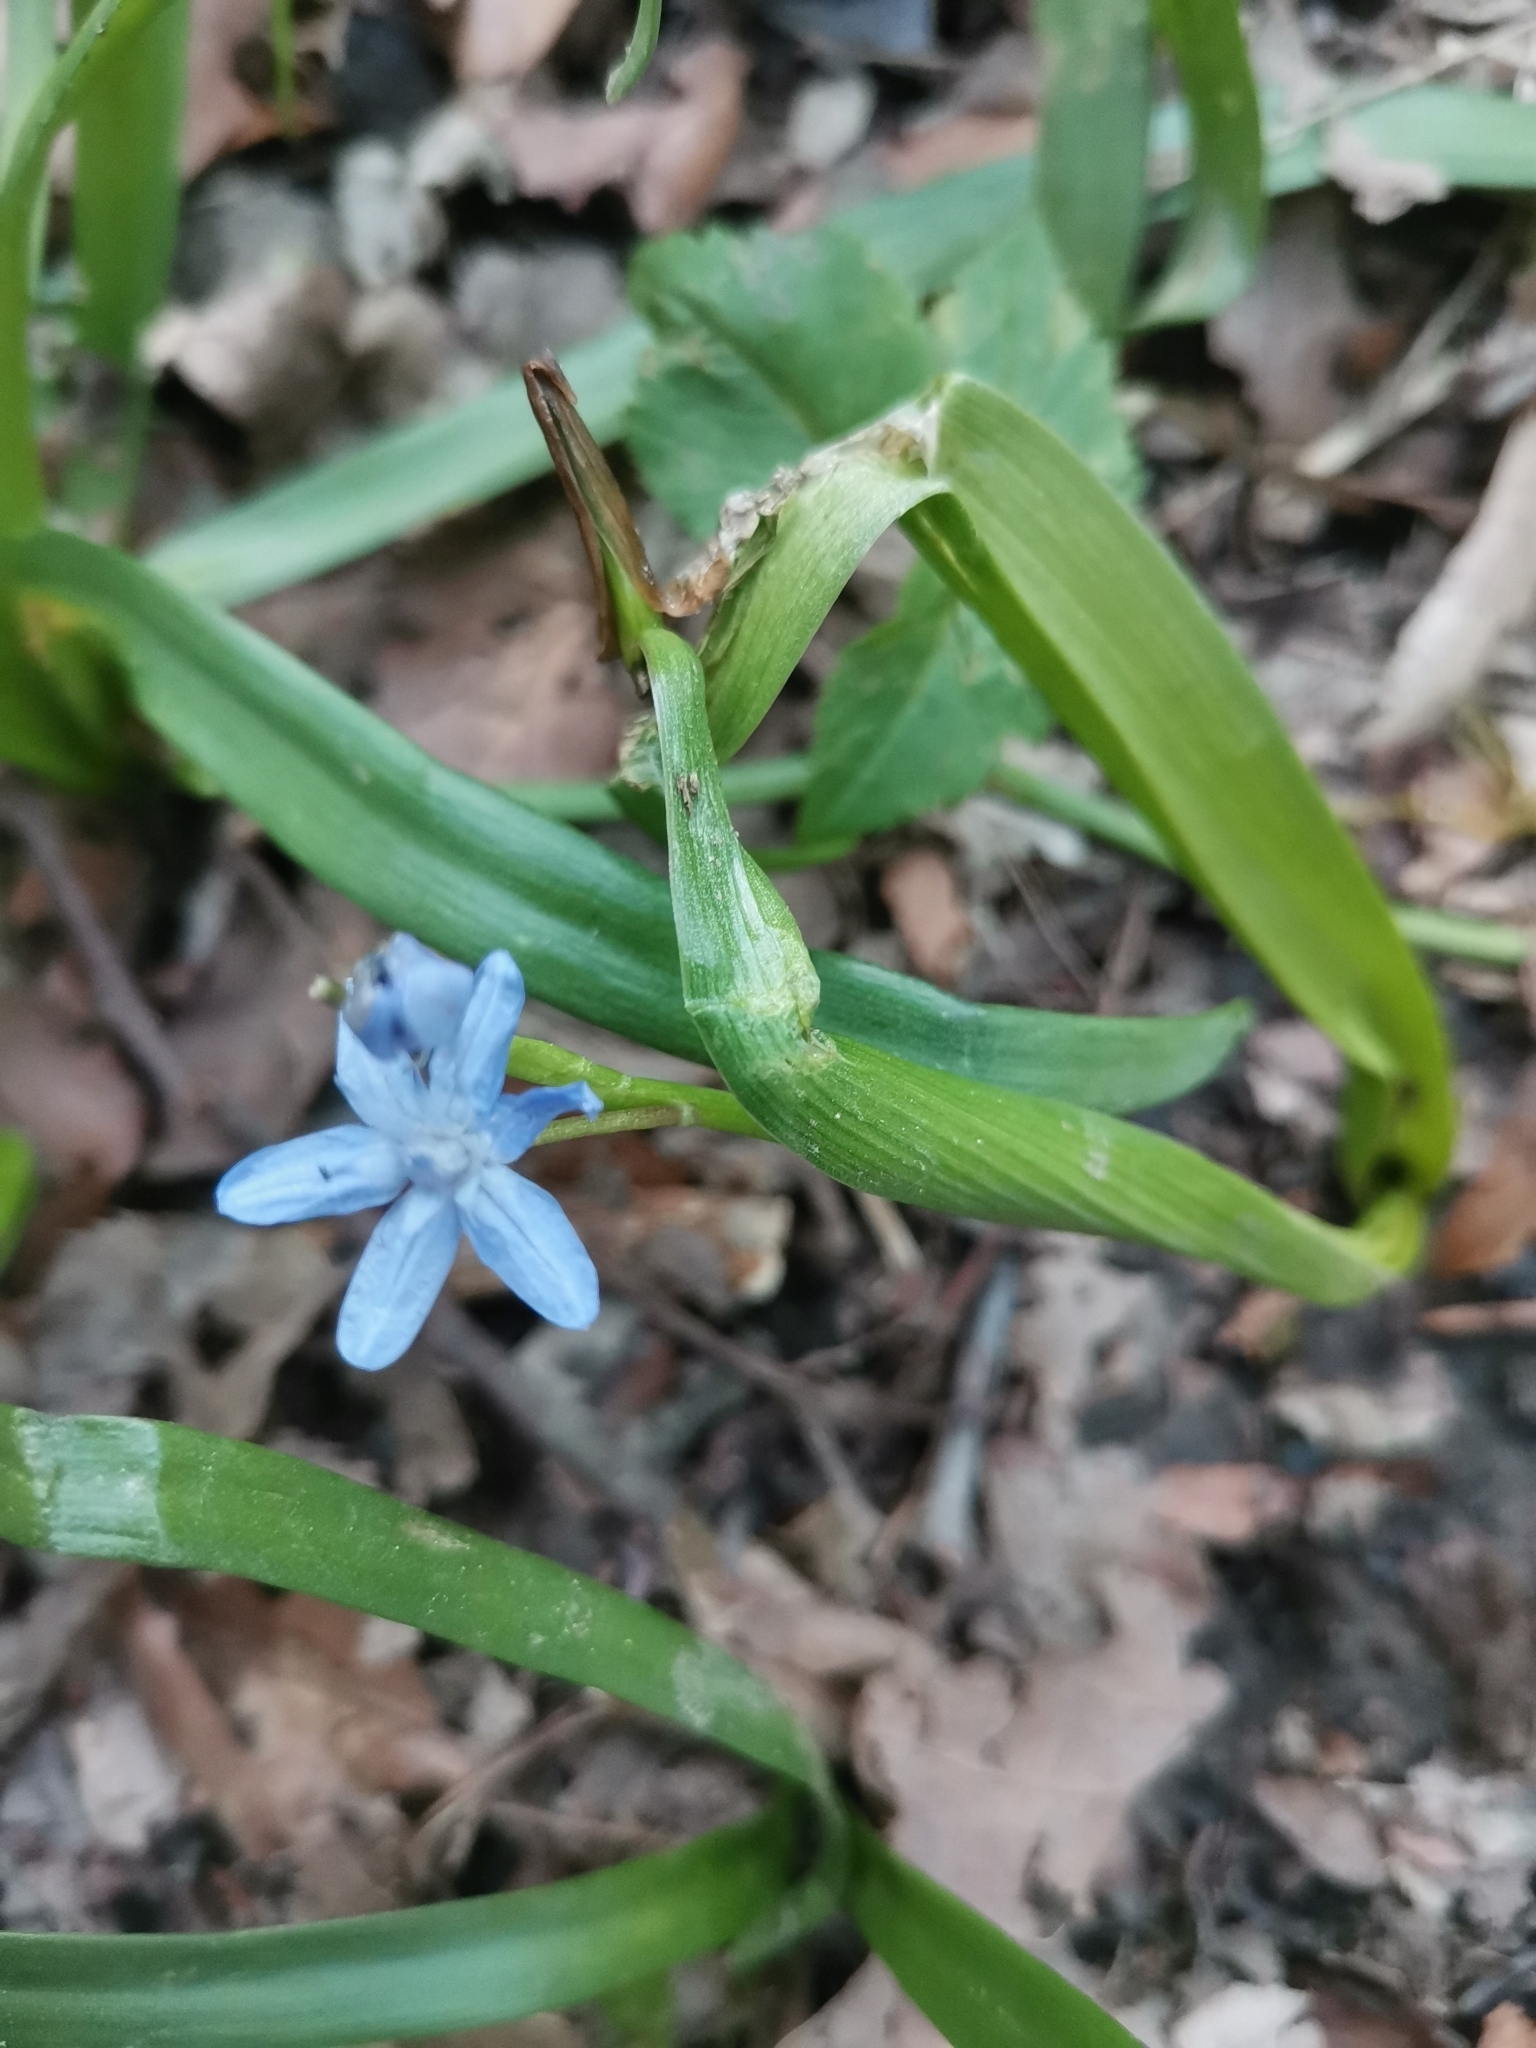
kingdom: Plantae
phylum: Tracheophyta
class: Liliopsida
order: Asparagales
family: Asparagaceae
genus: Scilla
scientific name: Scilla bifolia
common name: Alpine squill
